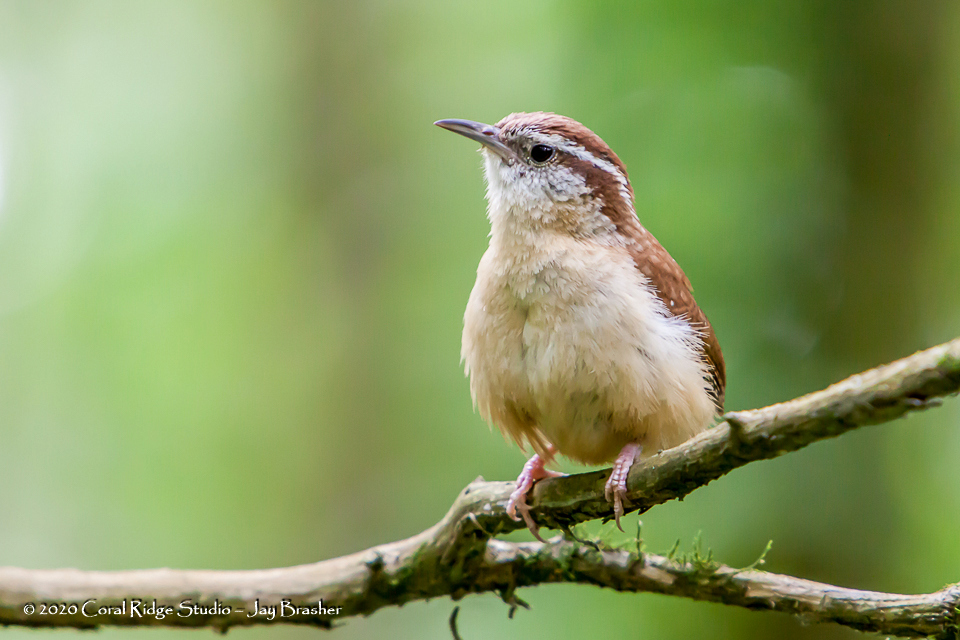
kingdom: Animalia
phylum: Chordata
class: Aves
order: Passeriformes
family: Troglodytidae
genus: Thryothorus
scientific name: Thryothorus ludovicianus
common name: Carolina wren
